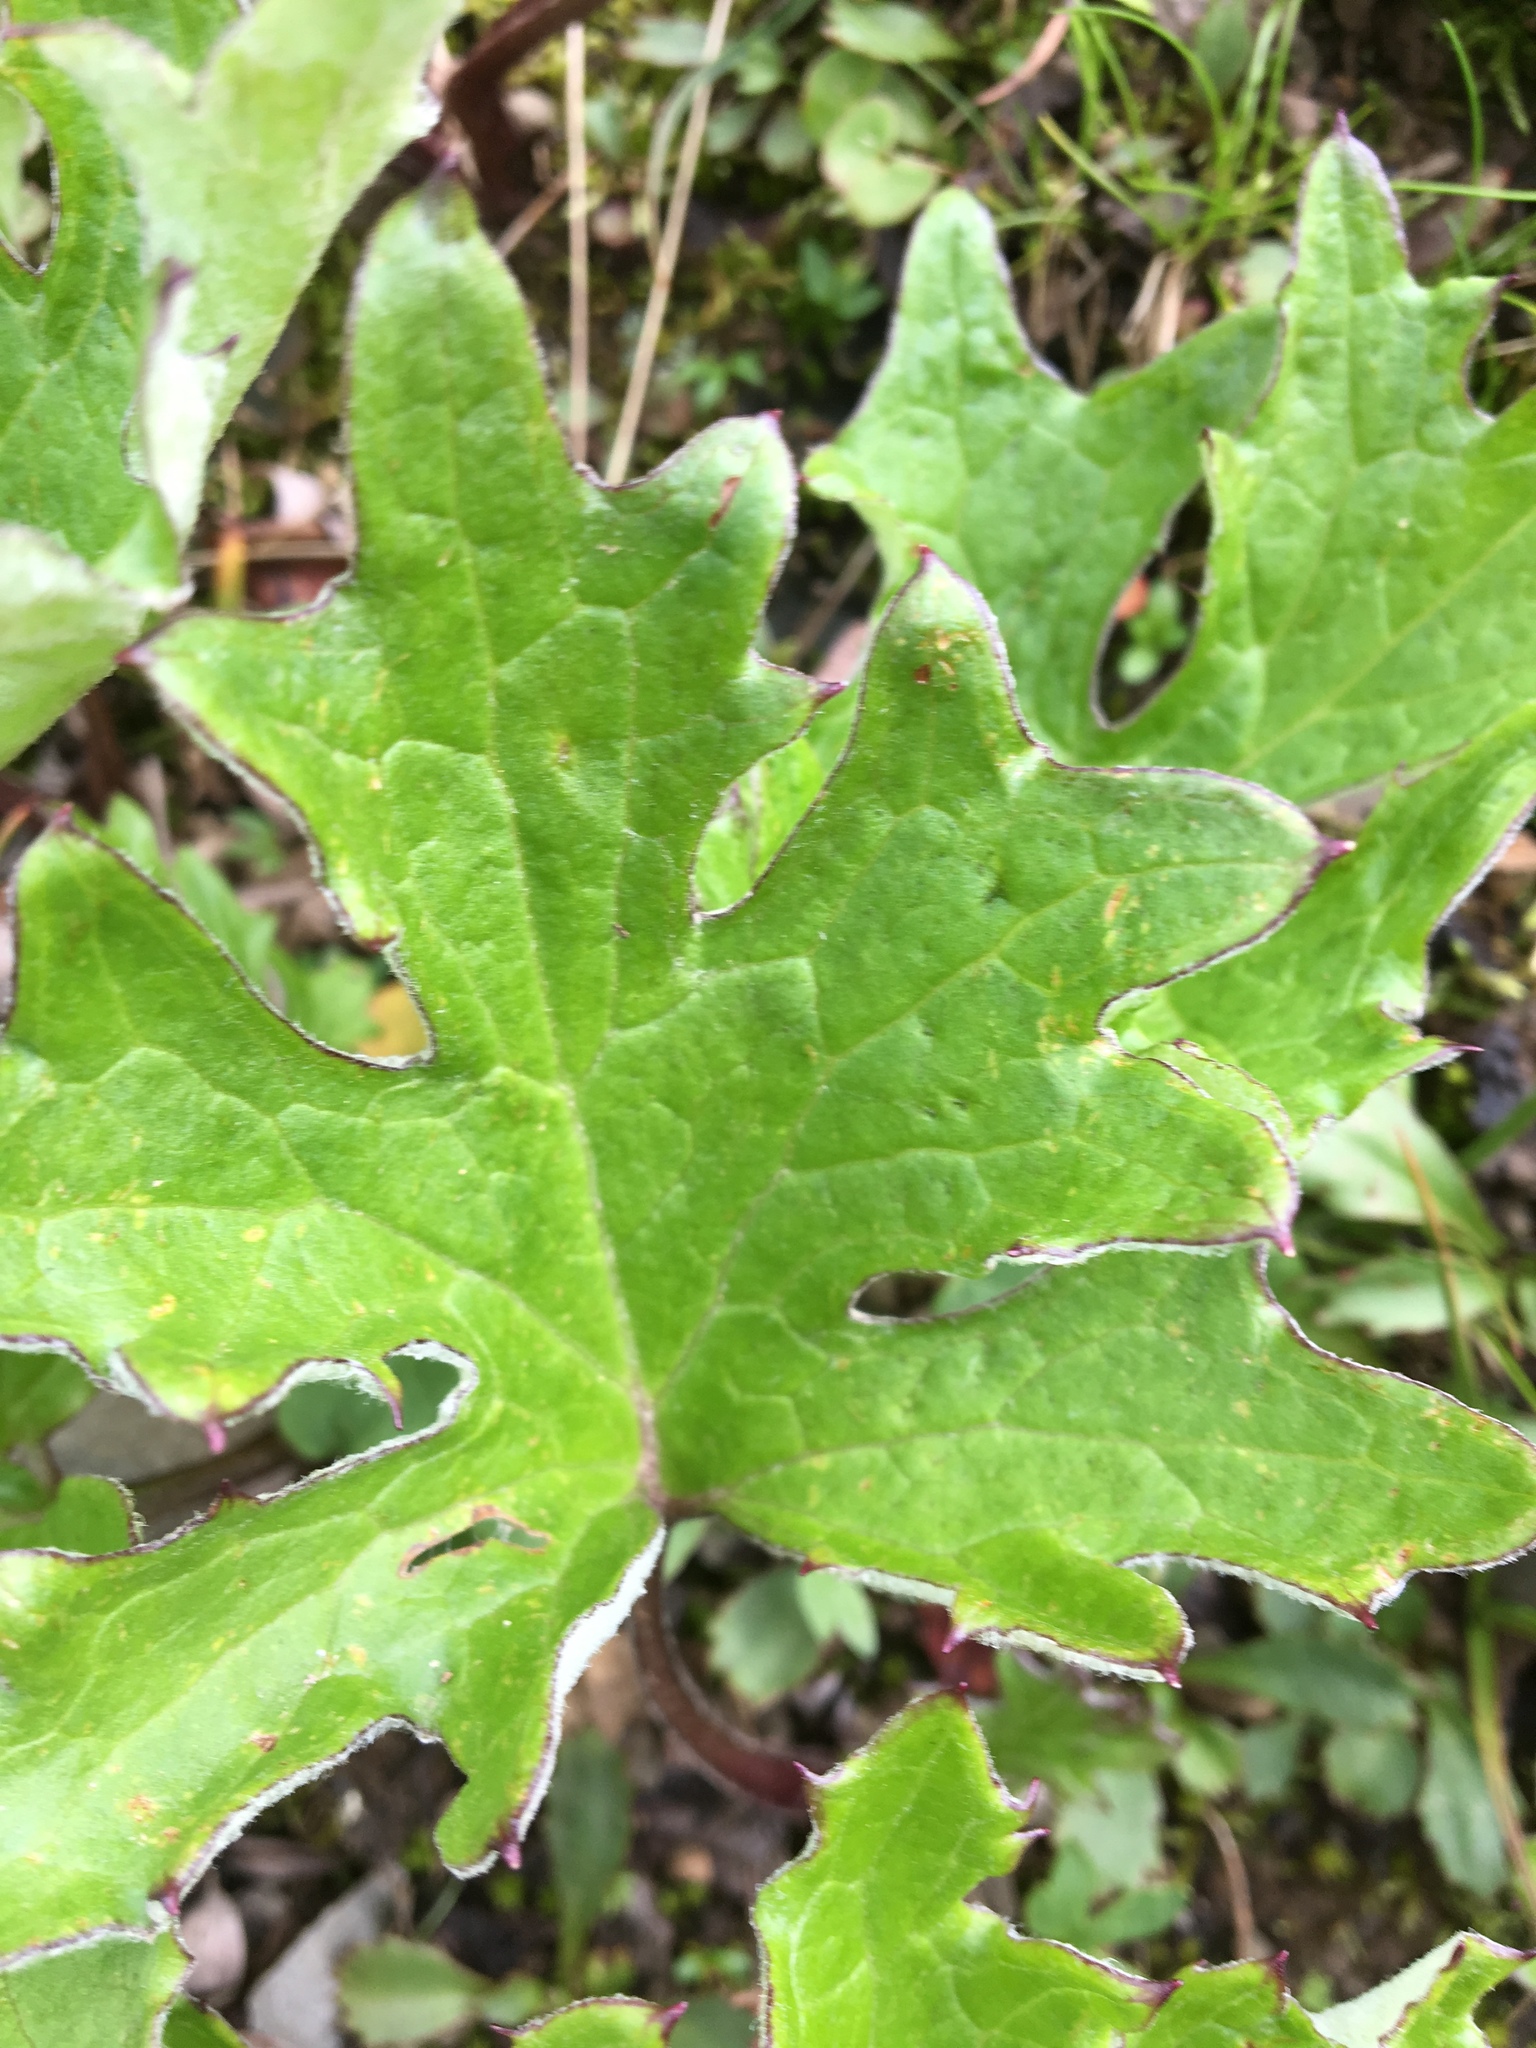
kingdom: Plantae
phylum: Tracheophyta
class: Magnoliopsida
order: Asterales
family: Asteraceae
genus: Petasites
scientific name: Petasites frigidus
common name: Arctic butterbur
